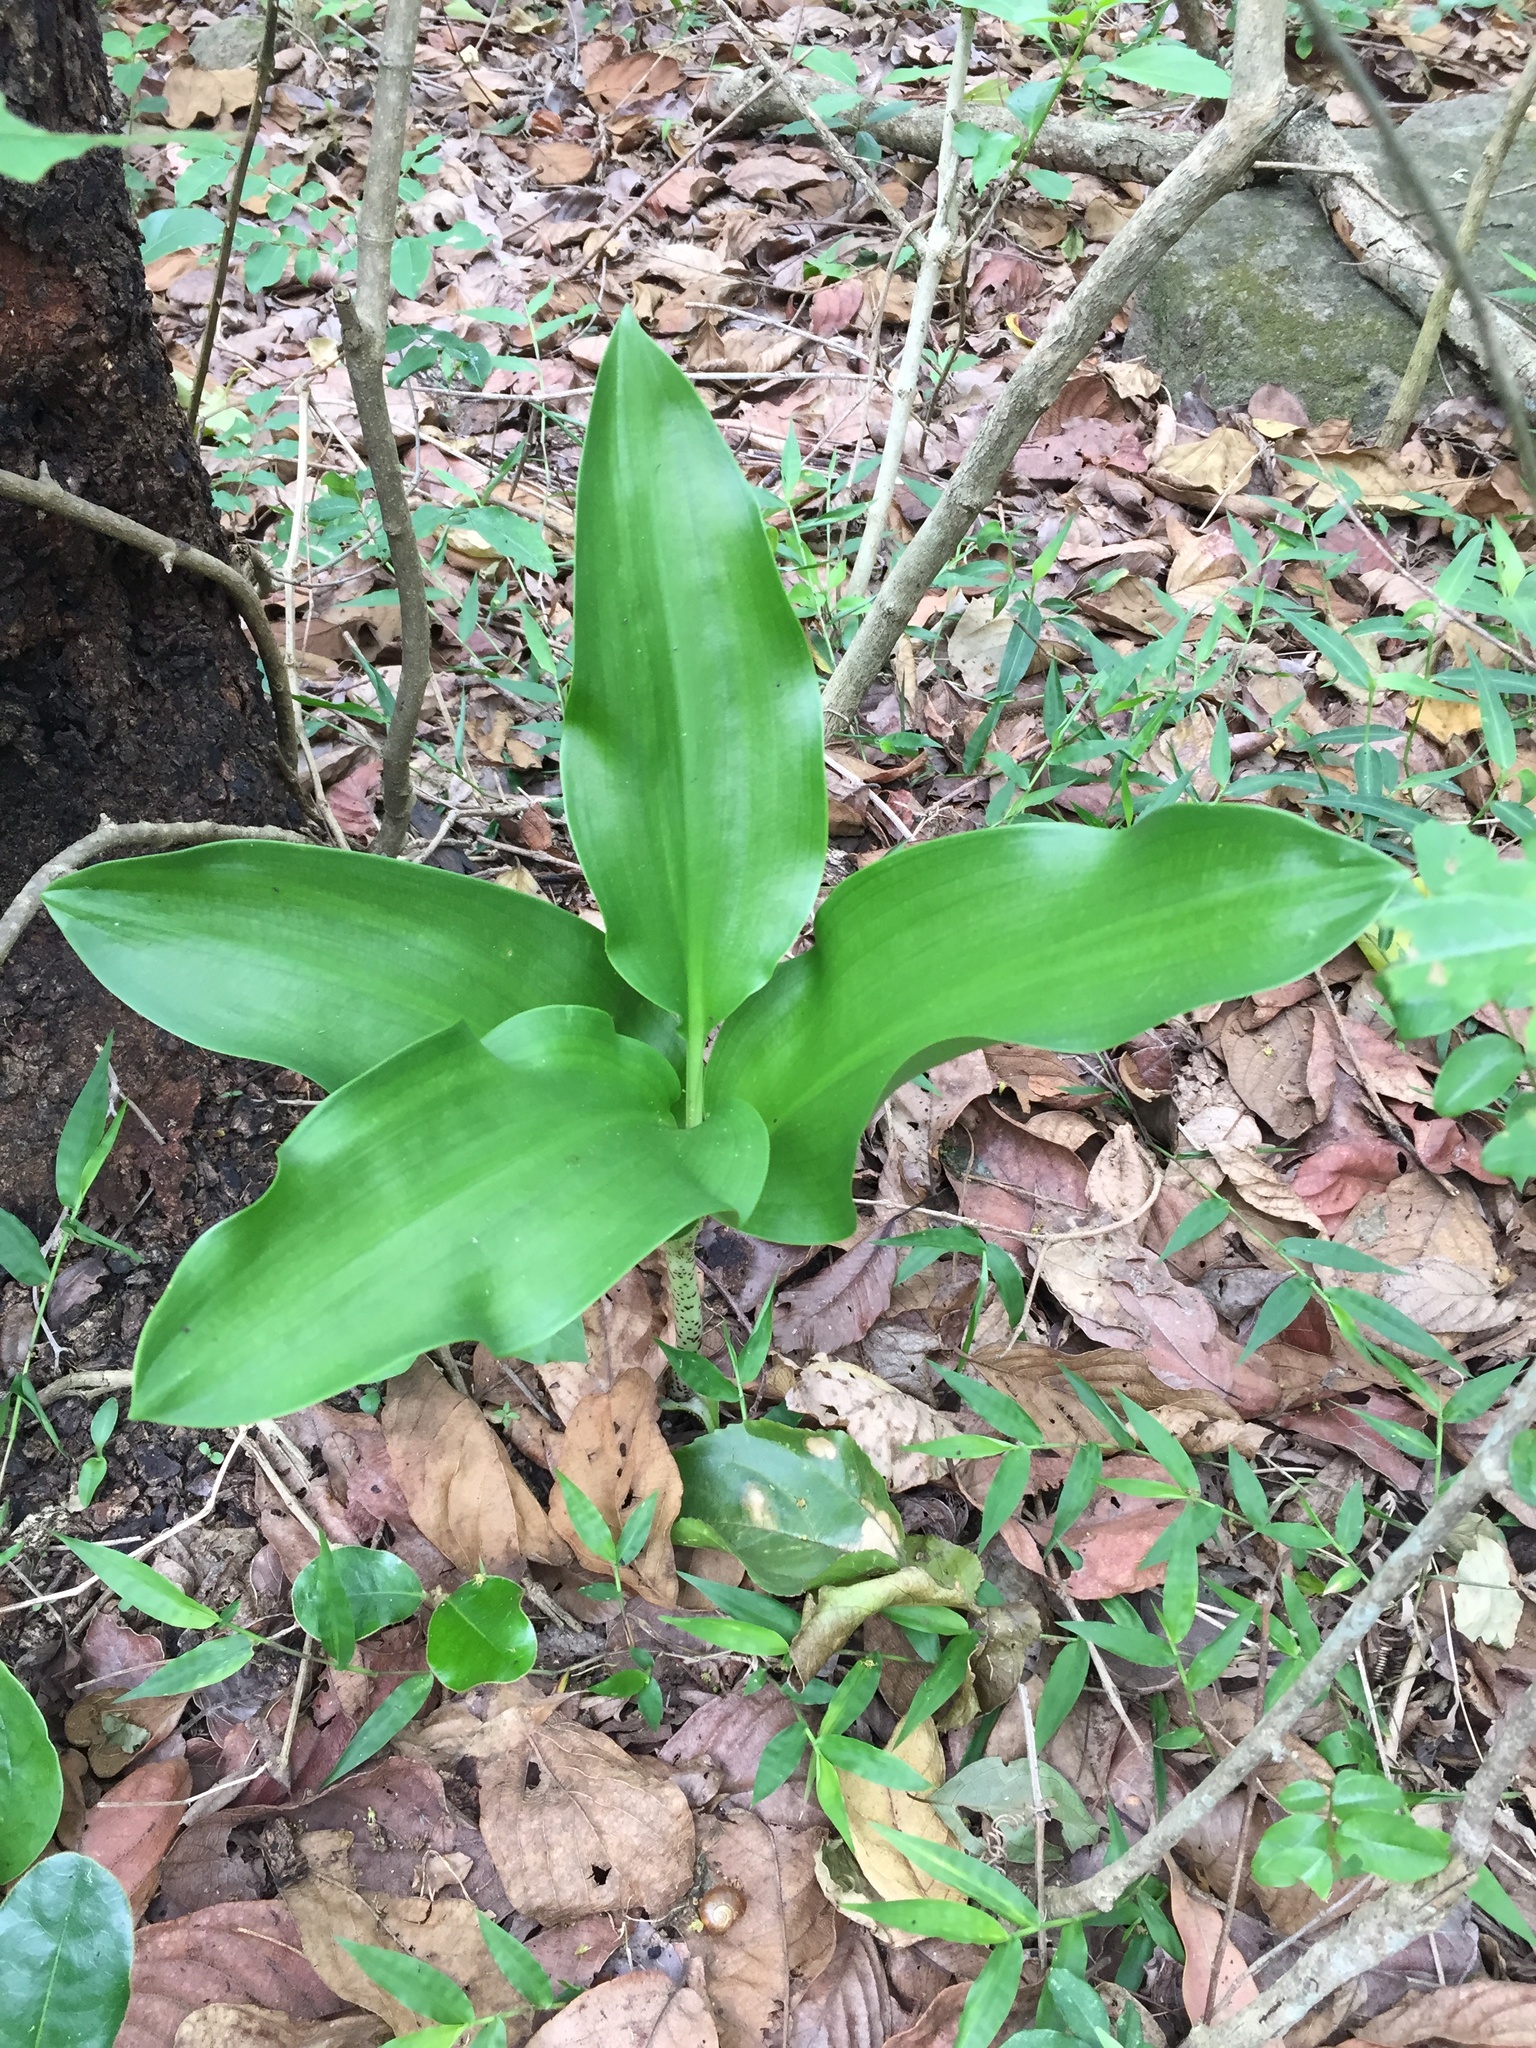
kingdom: Plantae
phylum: Tracheophyta
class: Liliopsida
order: Asparagales
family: Amaryllidaceae
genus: Scadoxus
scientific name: Scadoxus puniceus
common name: Royal-paintbrush
